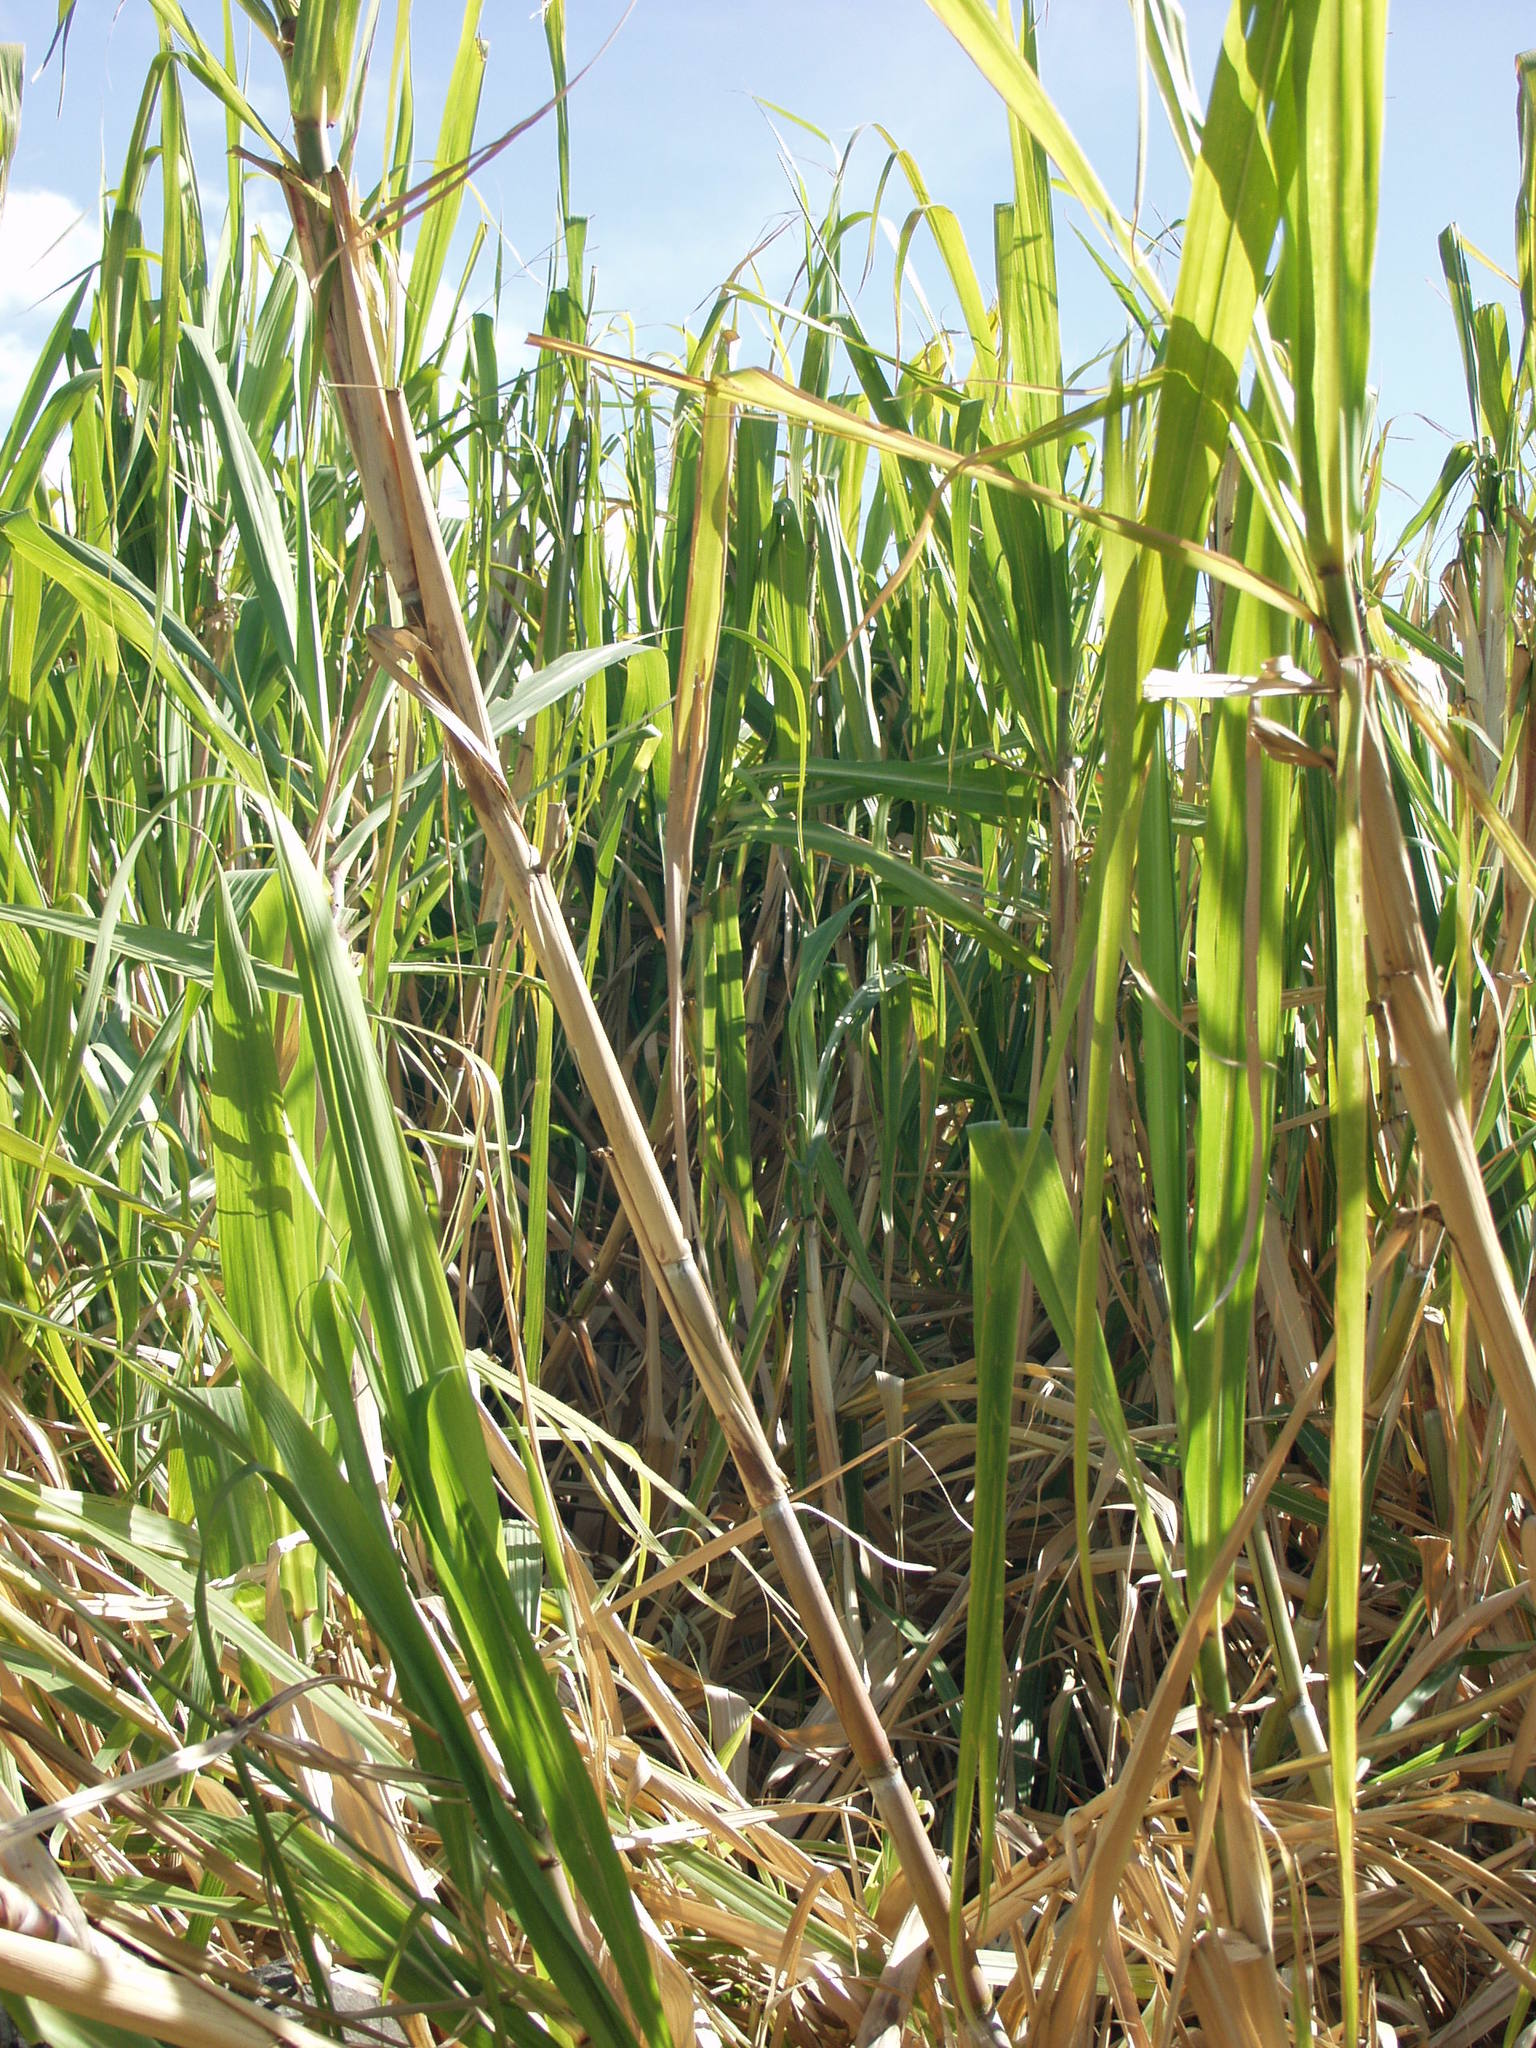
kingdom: Plantae
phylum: Tracheophyta
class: Liliopsida
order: Poales
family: Poaceae
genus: Saccharum
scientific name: Saccharum officinarum
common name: Sugarcane
